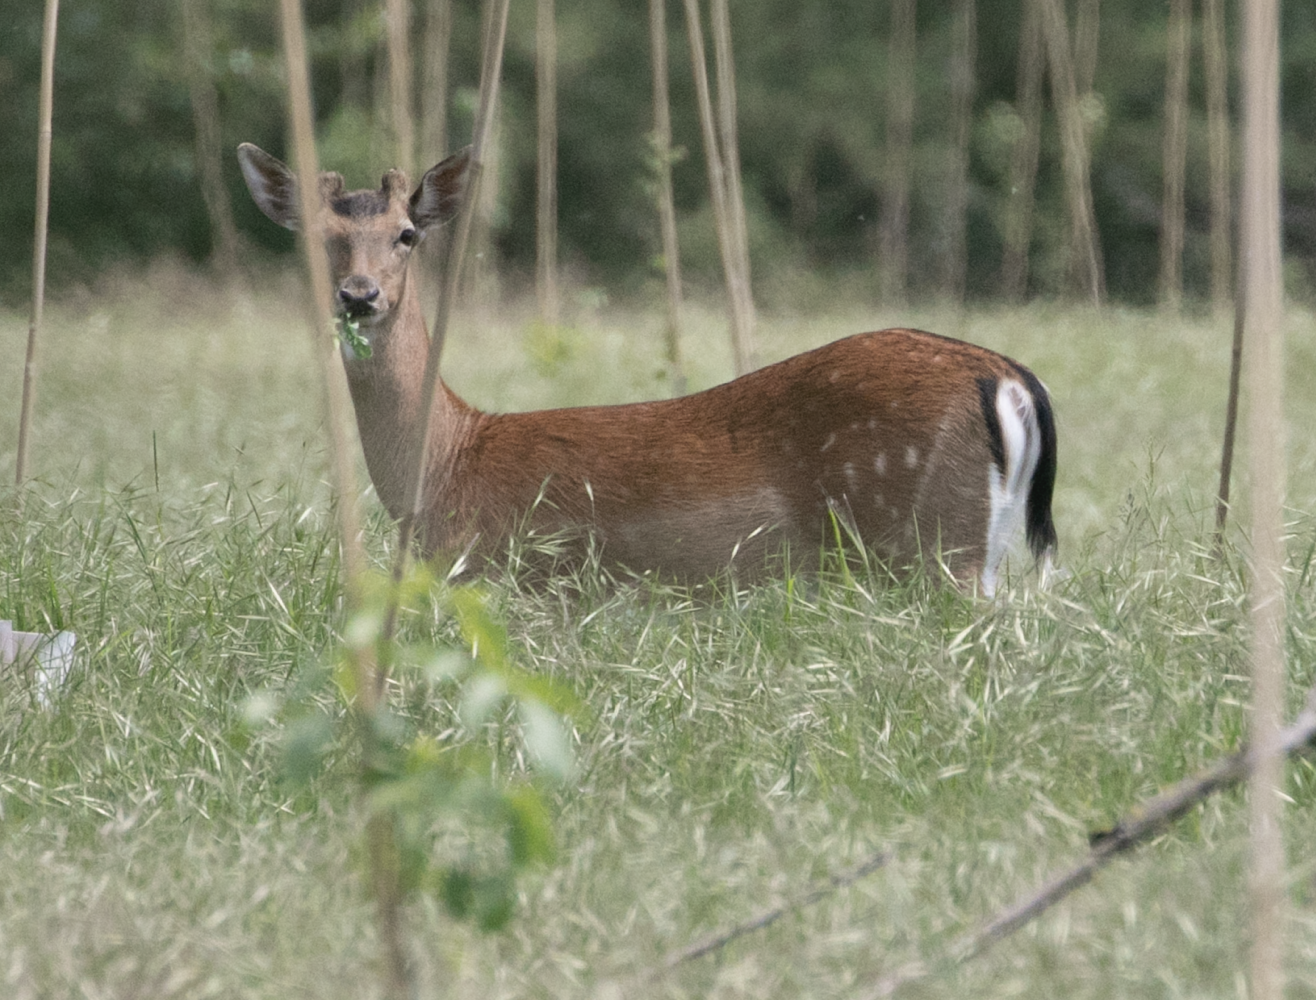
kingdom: Animalia
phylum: Chordata
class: Mammalia
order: Artiodactyla
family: Cervidae
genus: Dama
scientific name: Dama dama
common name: Fallow deer
